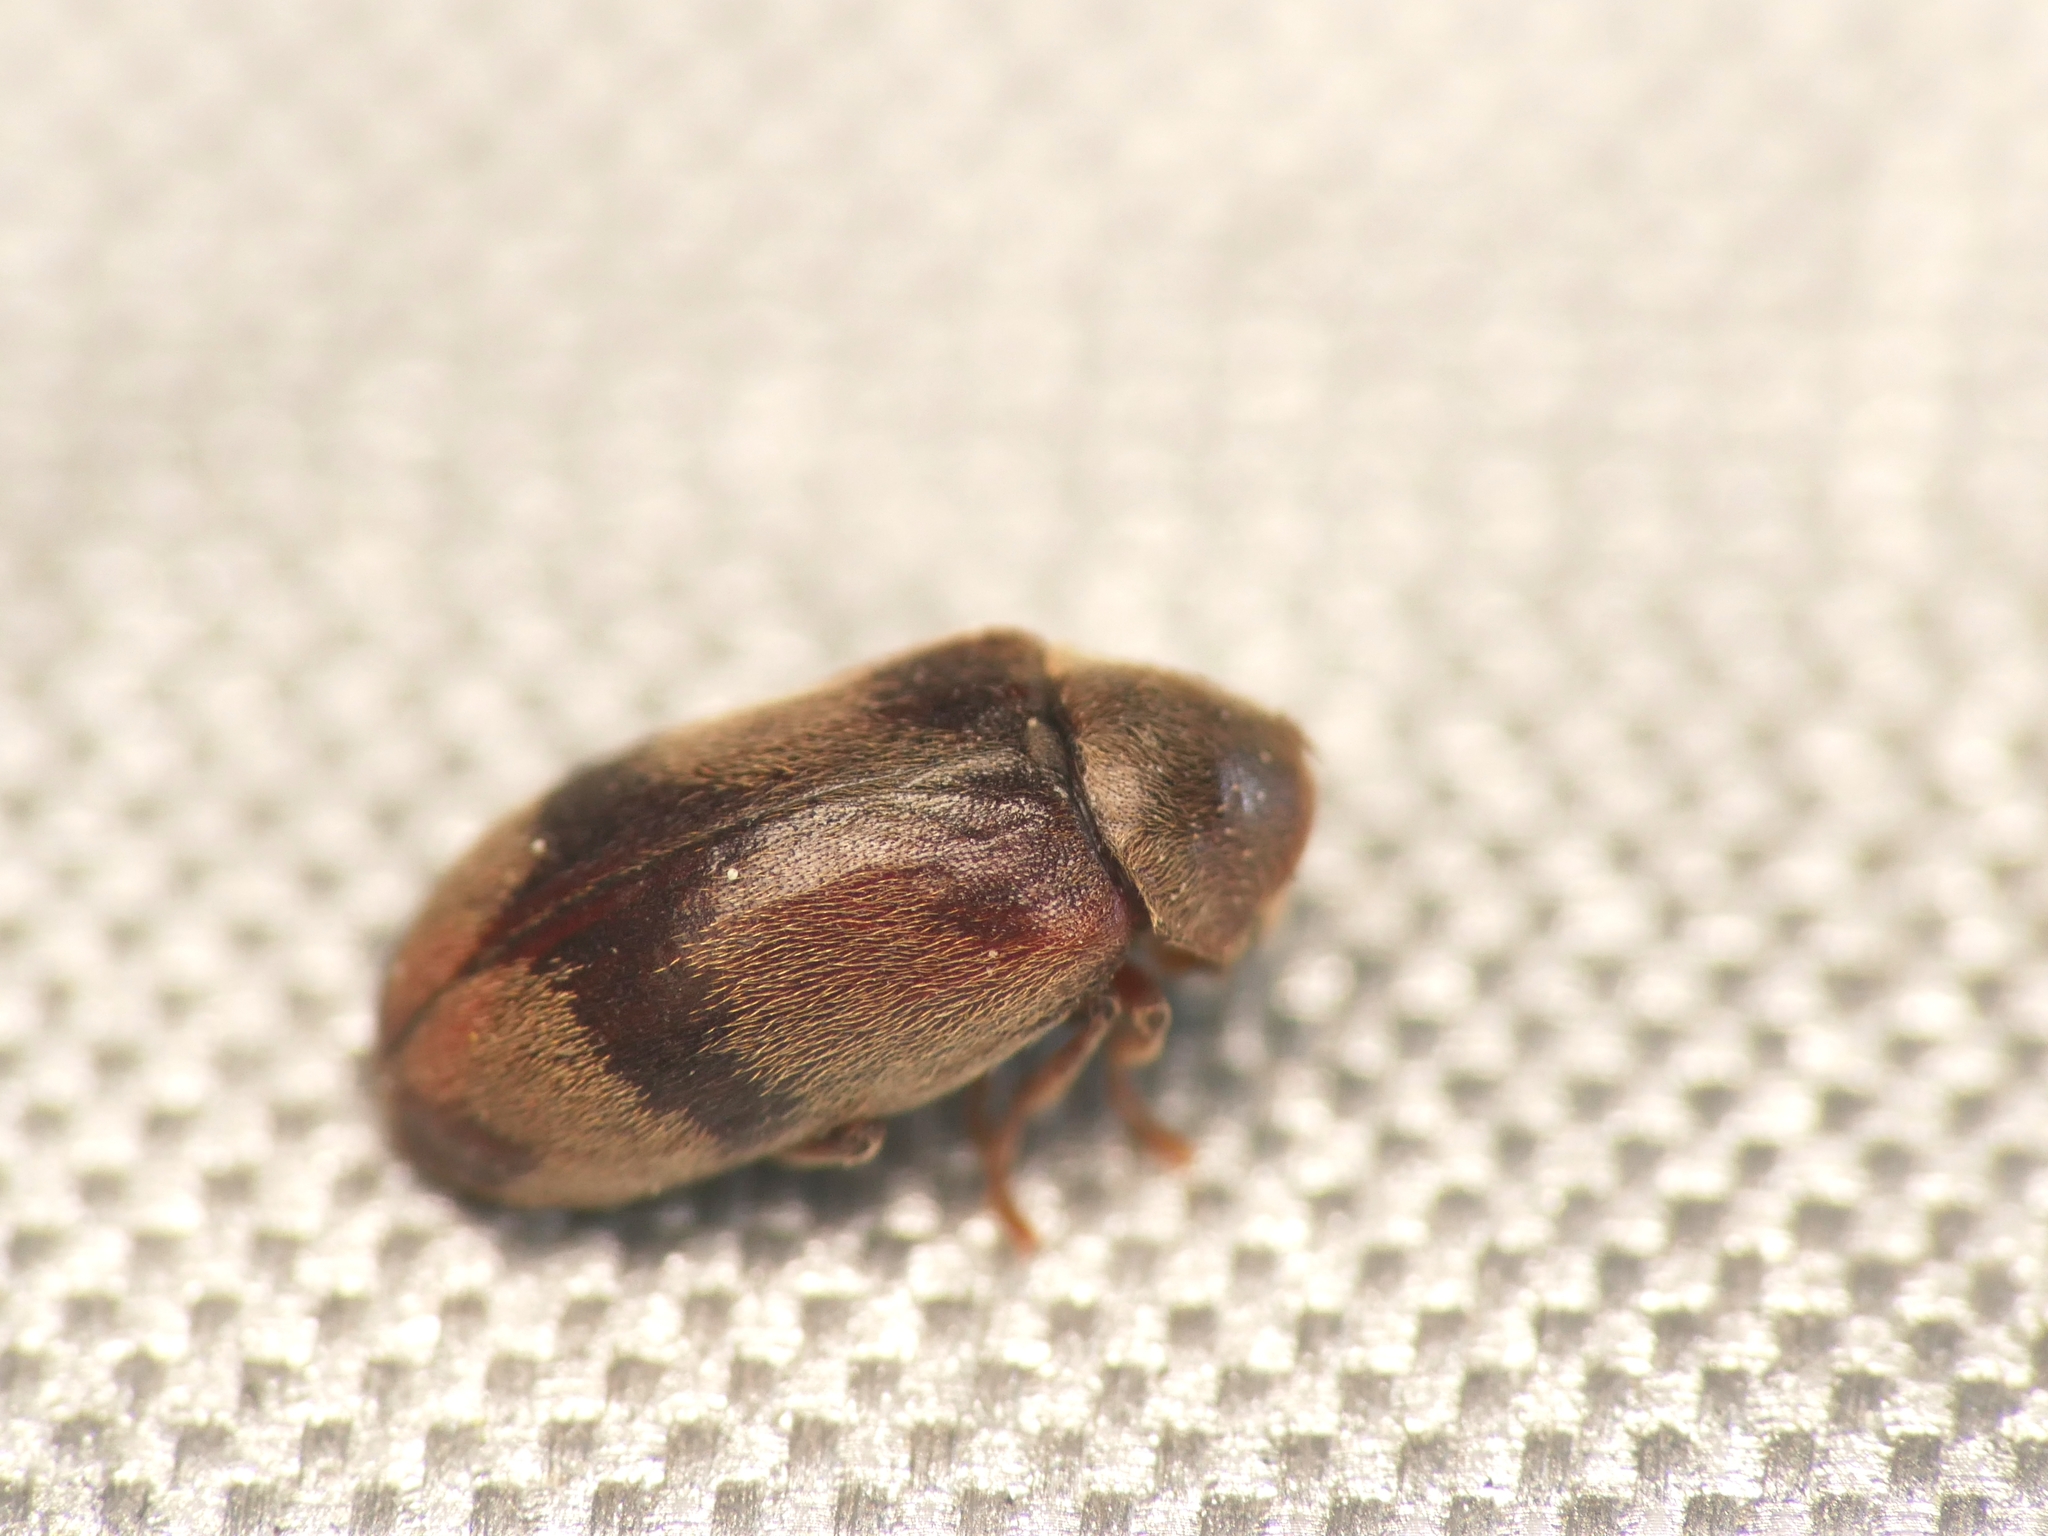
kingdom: Animalia
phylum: Arthropoda
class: Insecta
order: Coleoptera
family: Ptinidae
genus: Ochina
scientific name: Ochina ptinoides
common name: Ivy boring beetle
